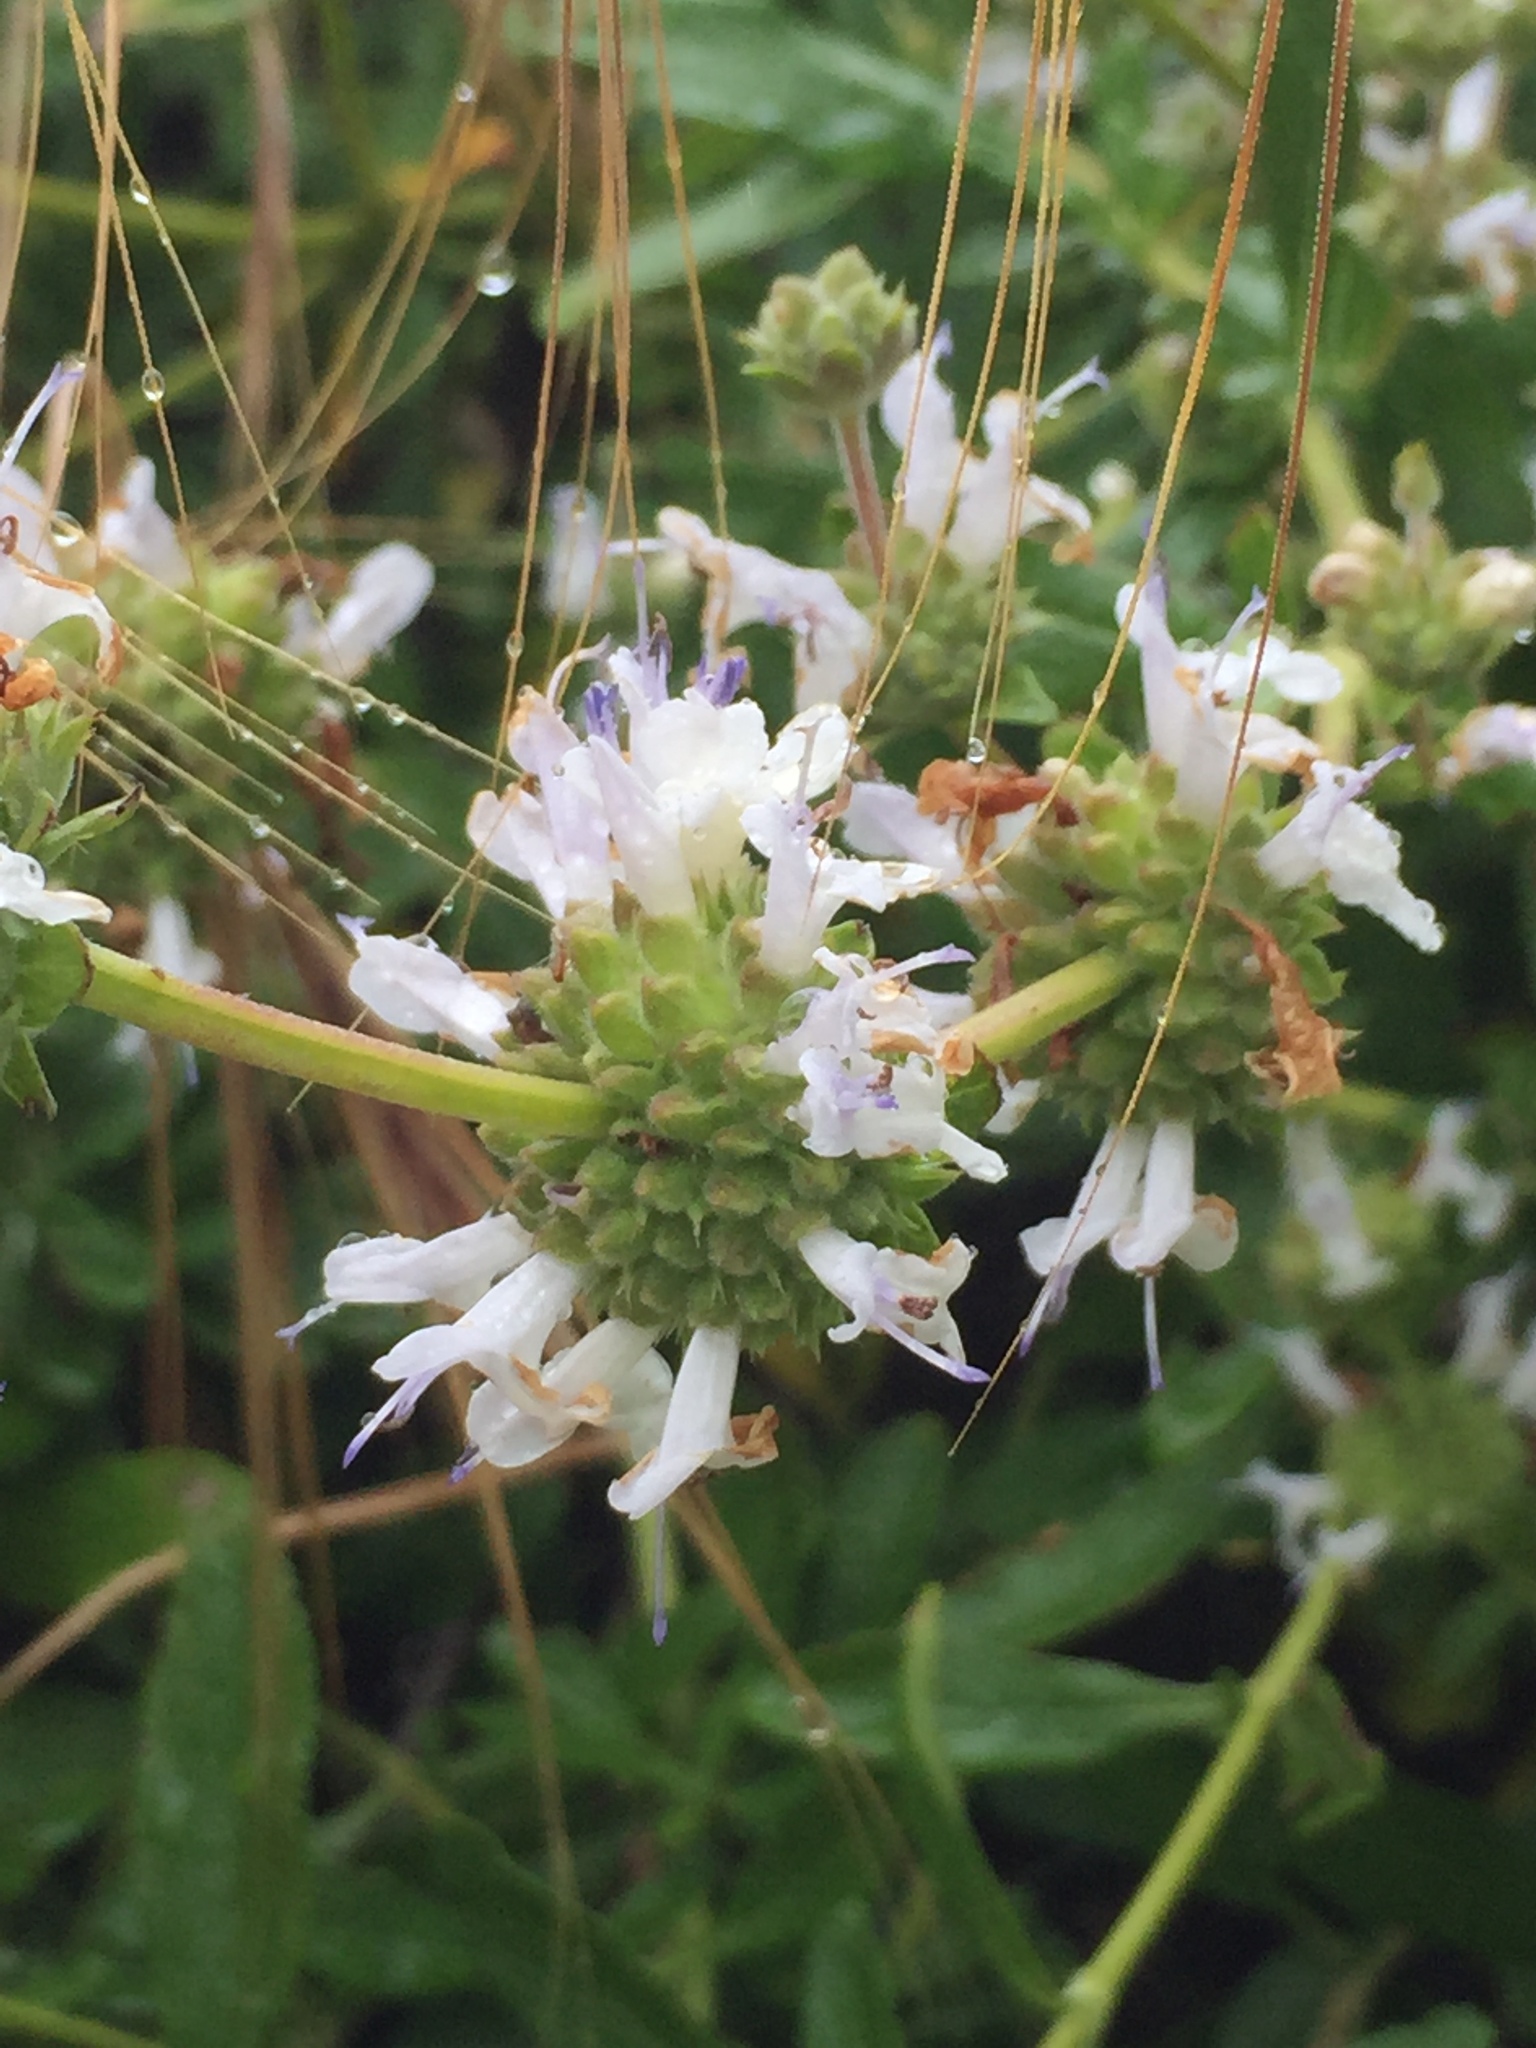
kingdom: Plantae
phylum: Tracheophyta
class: Magnoliopsida
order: Lamiales
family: Lamiaceae
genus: Salvia
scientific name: Salvia mellifera
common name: Black sage
